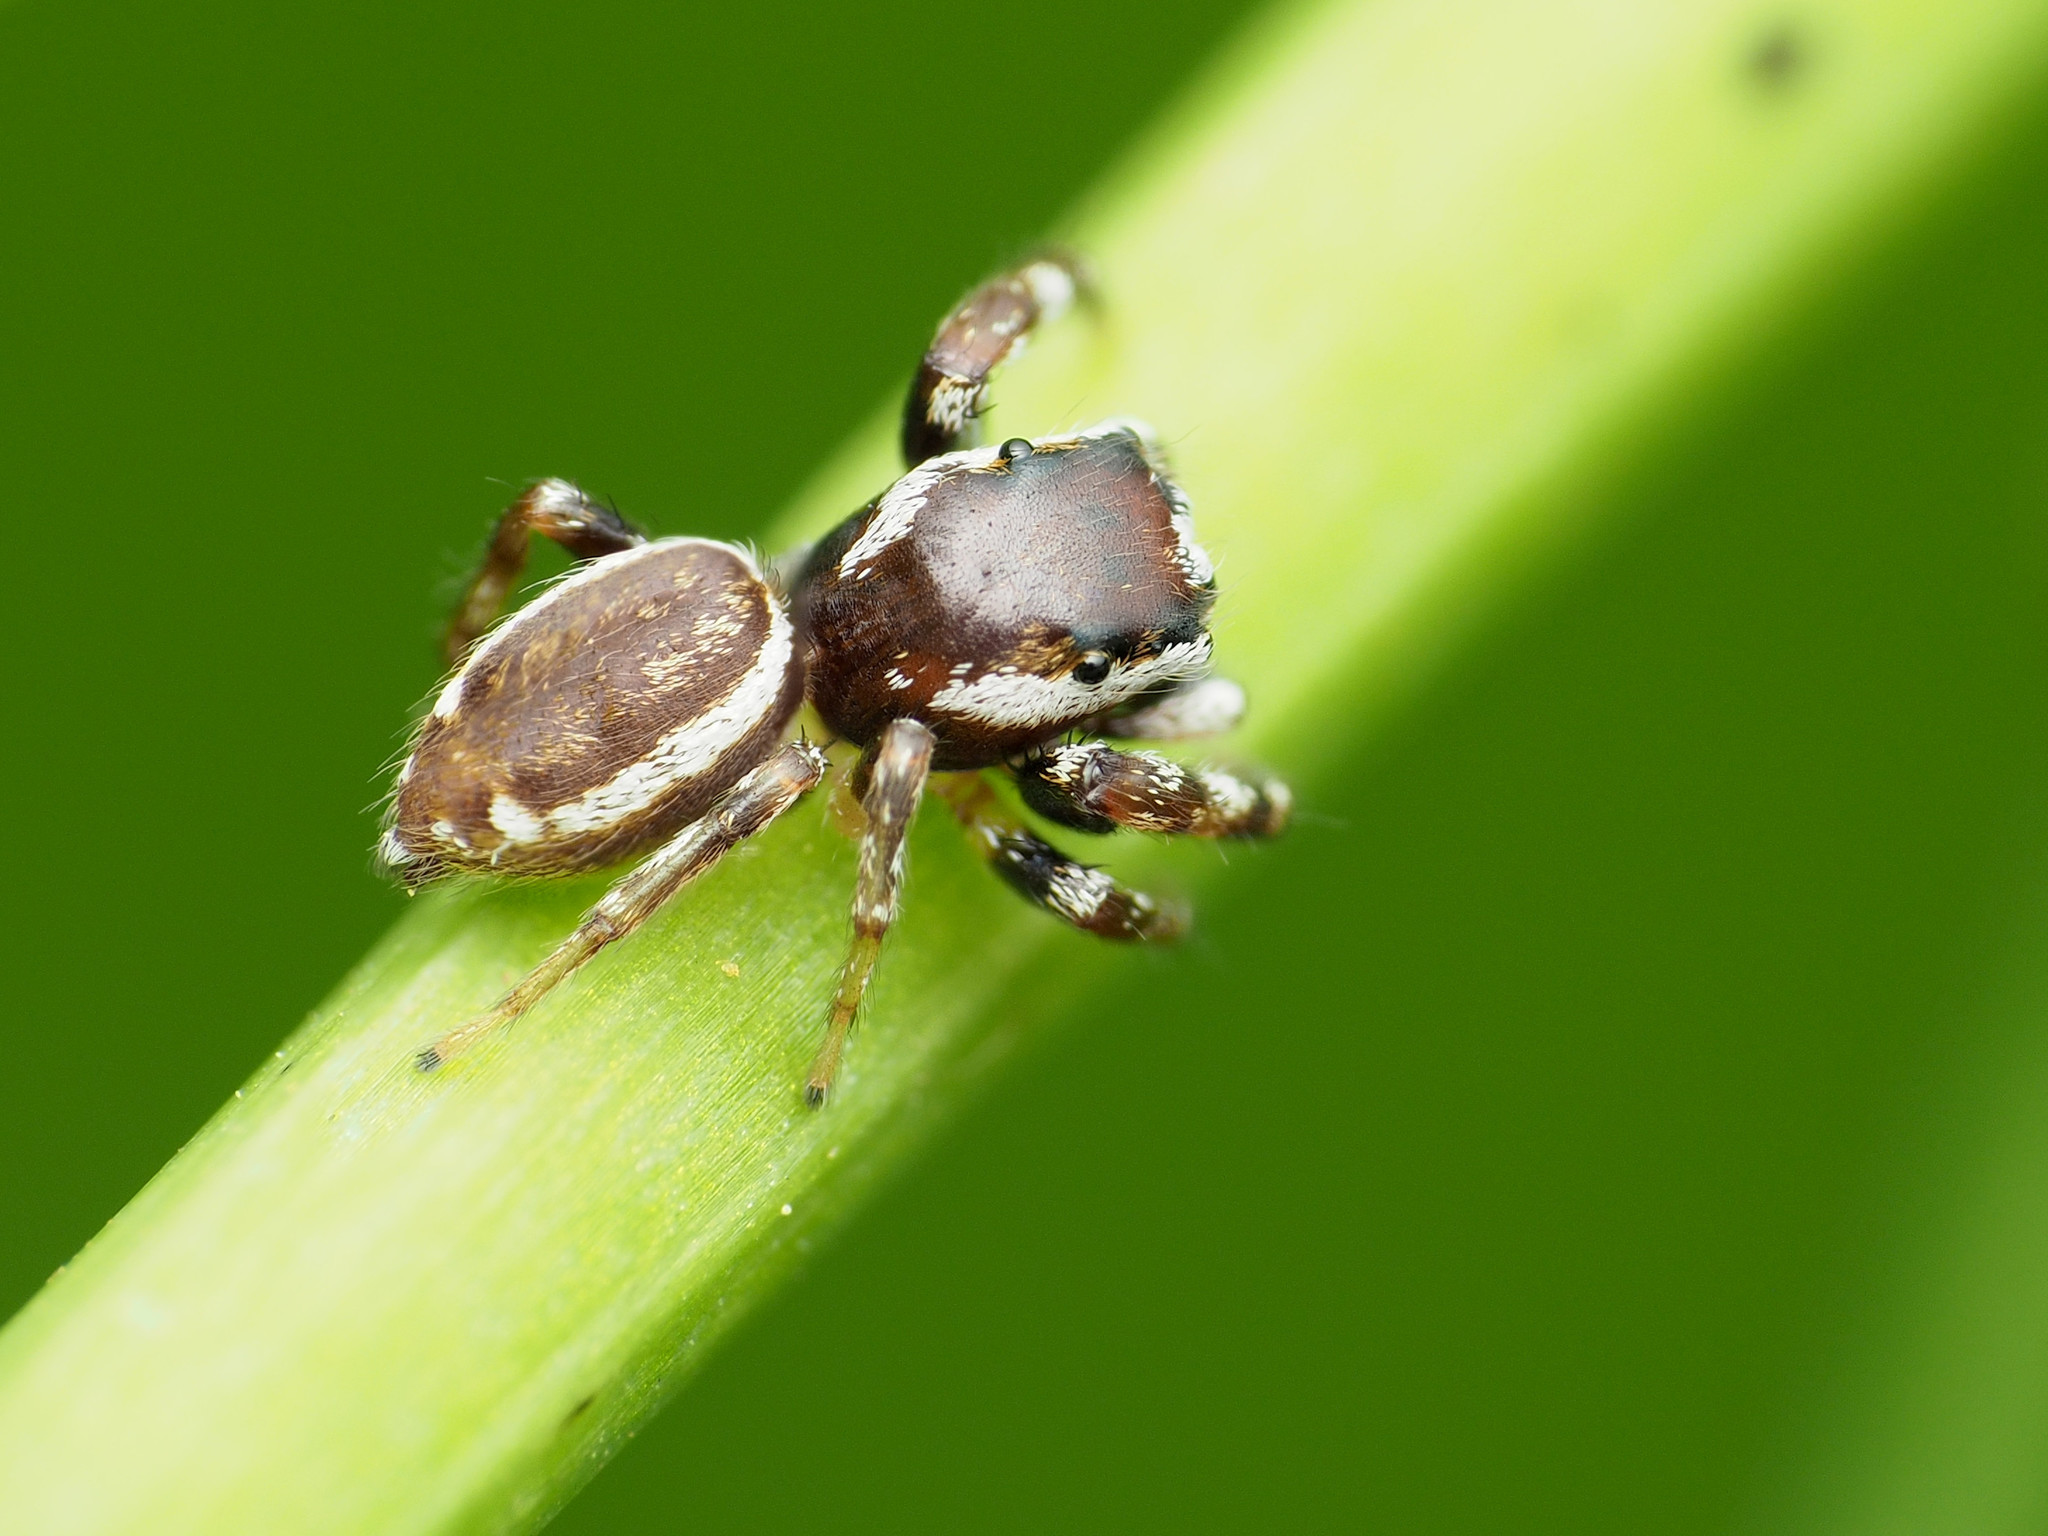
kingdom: Animalia
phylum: Arthropoda
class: Arachnida
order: Araneae
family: Salticidae
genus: Pelegrina
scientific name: Pelegrina proterva
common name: Common white-cheeked jumping spider
